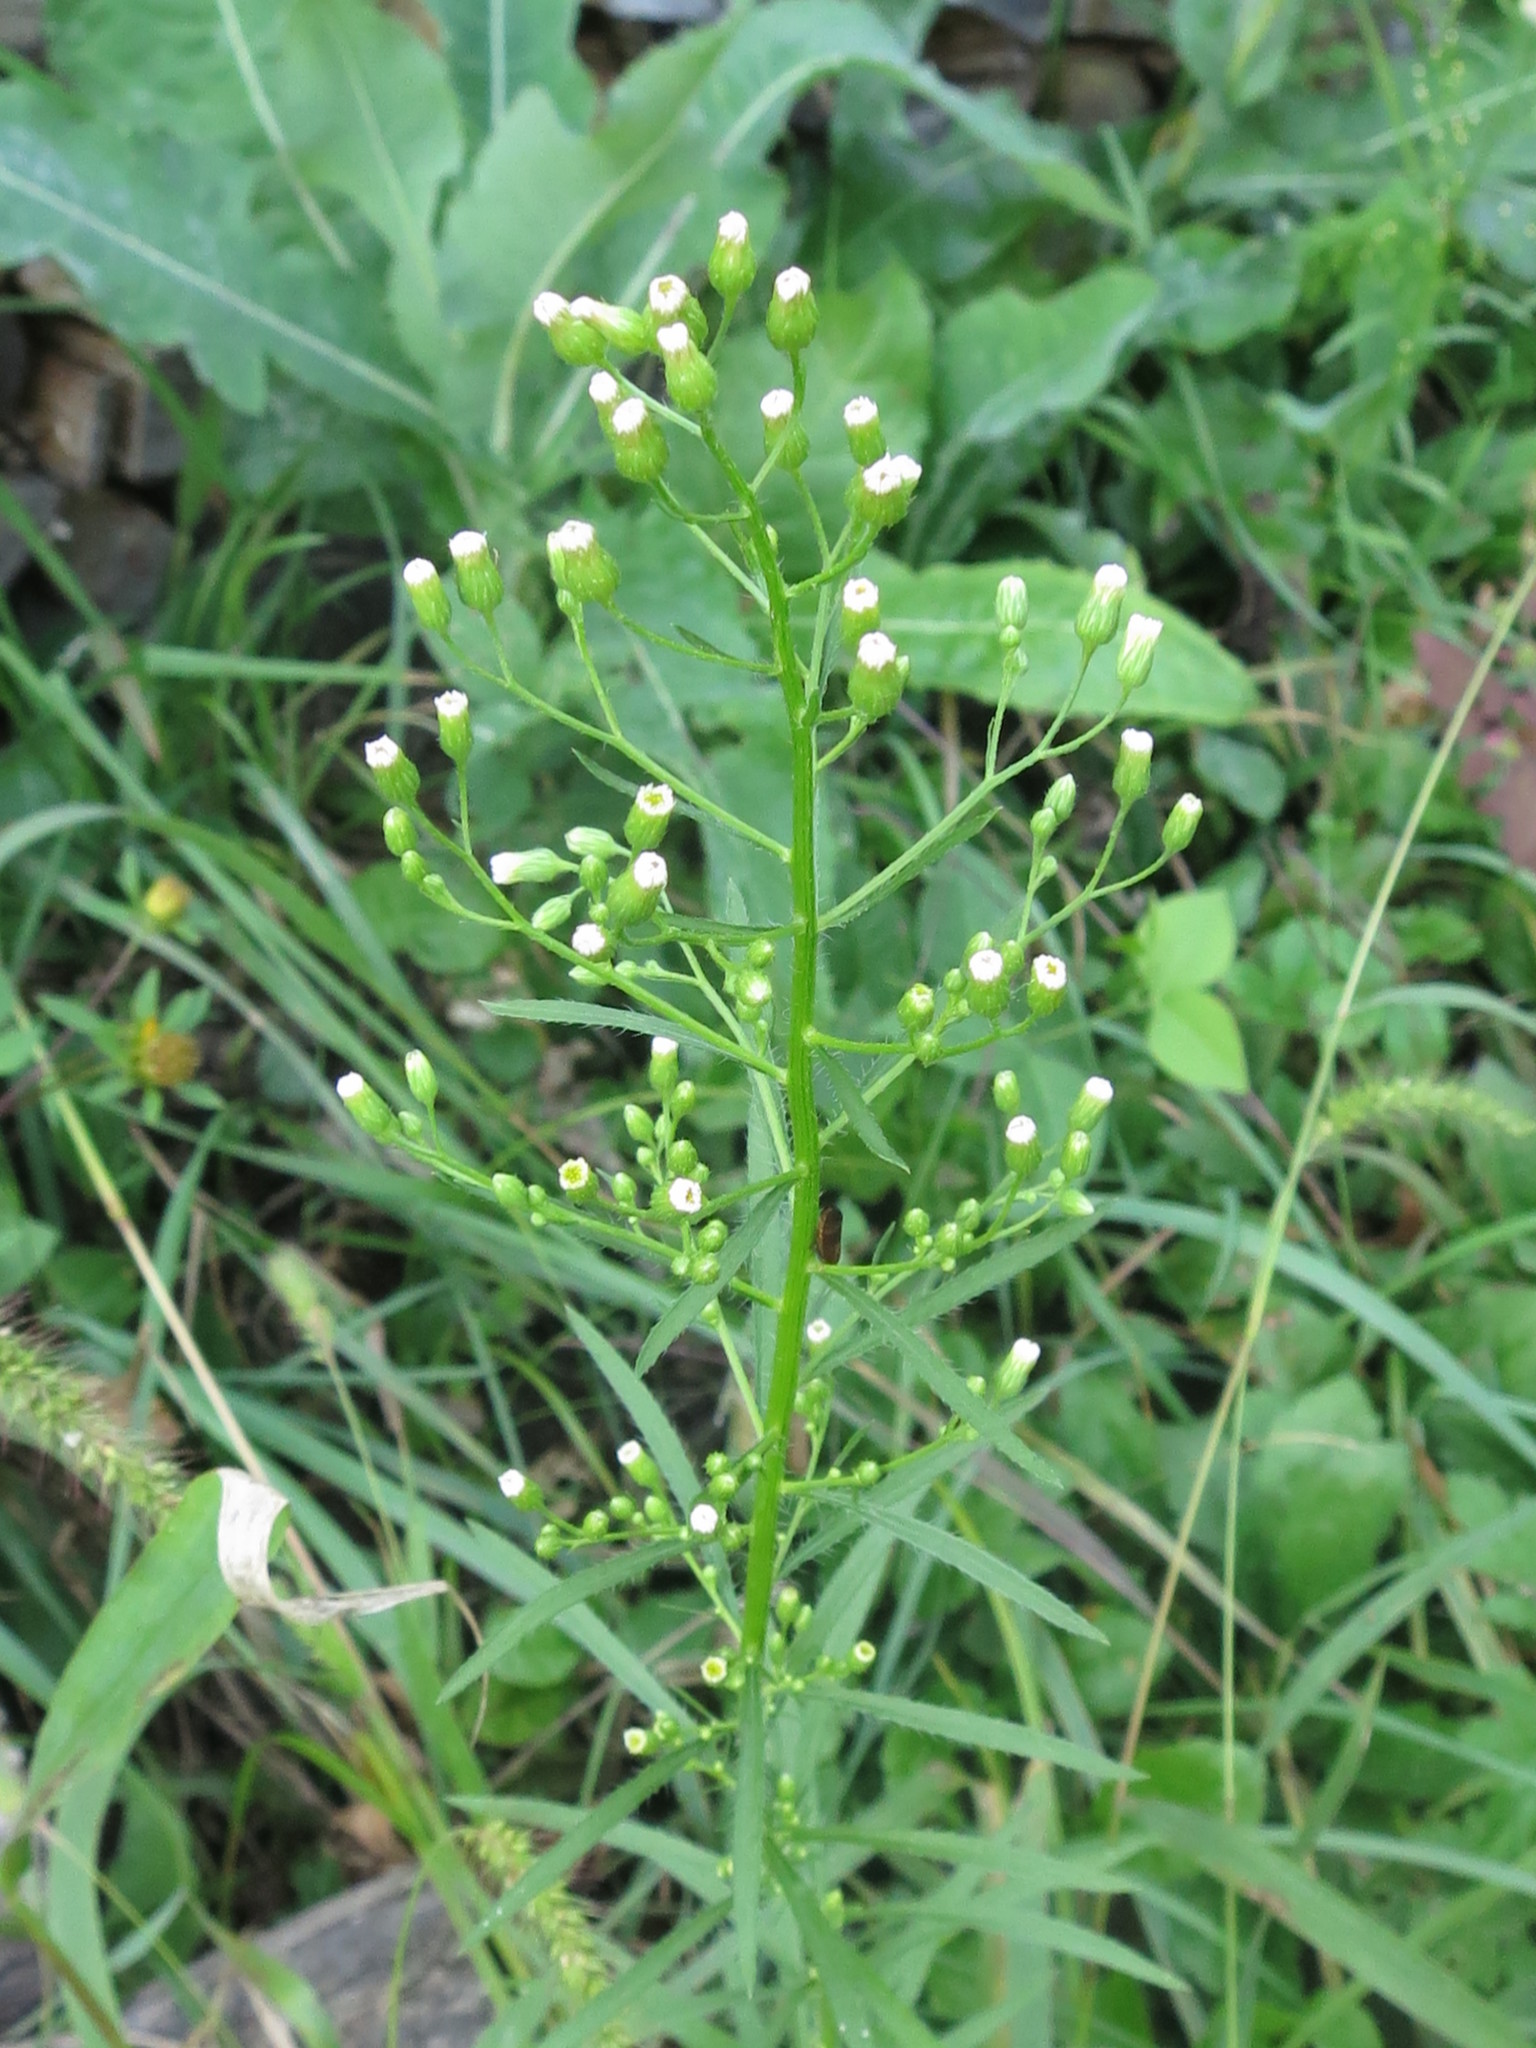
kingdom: Plantae
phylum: Tracheophyta
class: Magnoliopsida
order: Asterales
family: Asteraceae
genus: Erigeron
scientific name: Erigeron canadensis
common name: Canadian fleabane
